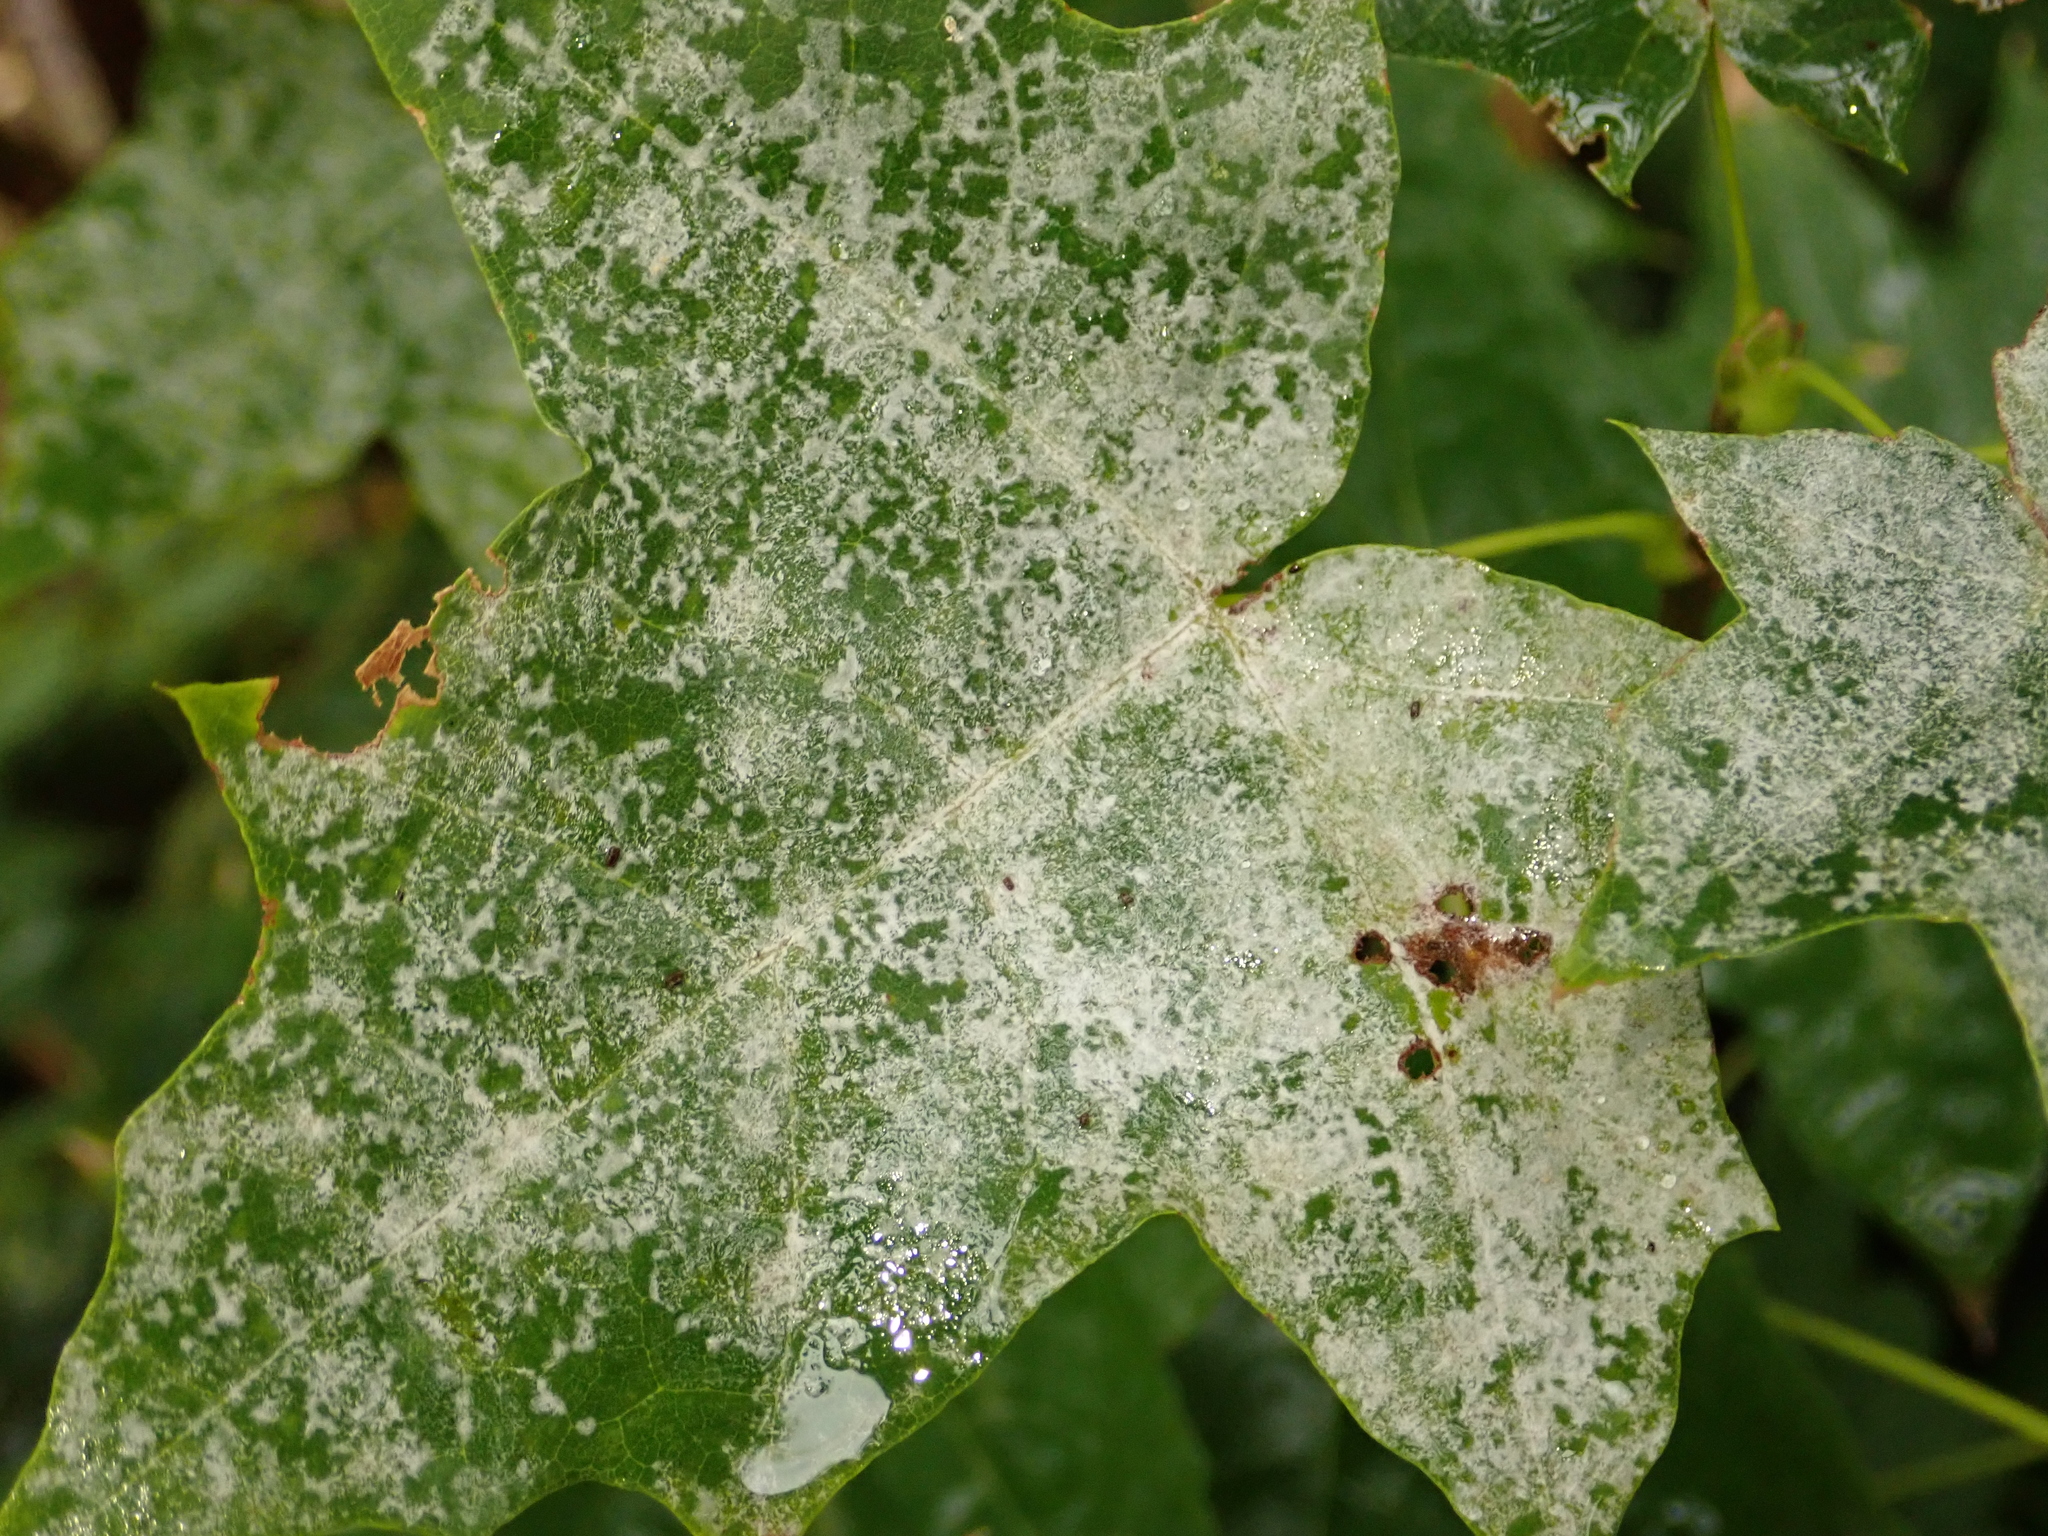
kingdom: Fungi
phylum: Ascomycota
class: Leotiomycetes
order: Helotiales
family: Erysiphaceae
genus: Sawadaea
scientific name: Sawadaea tulasnei
